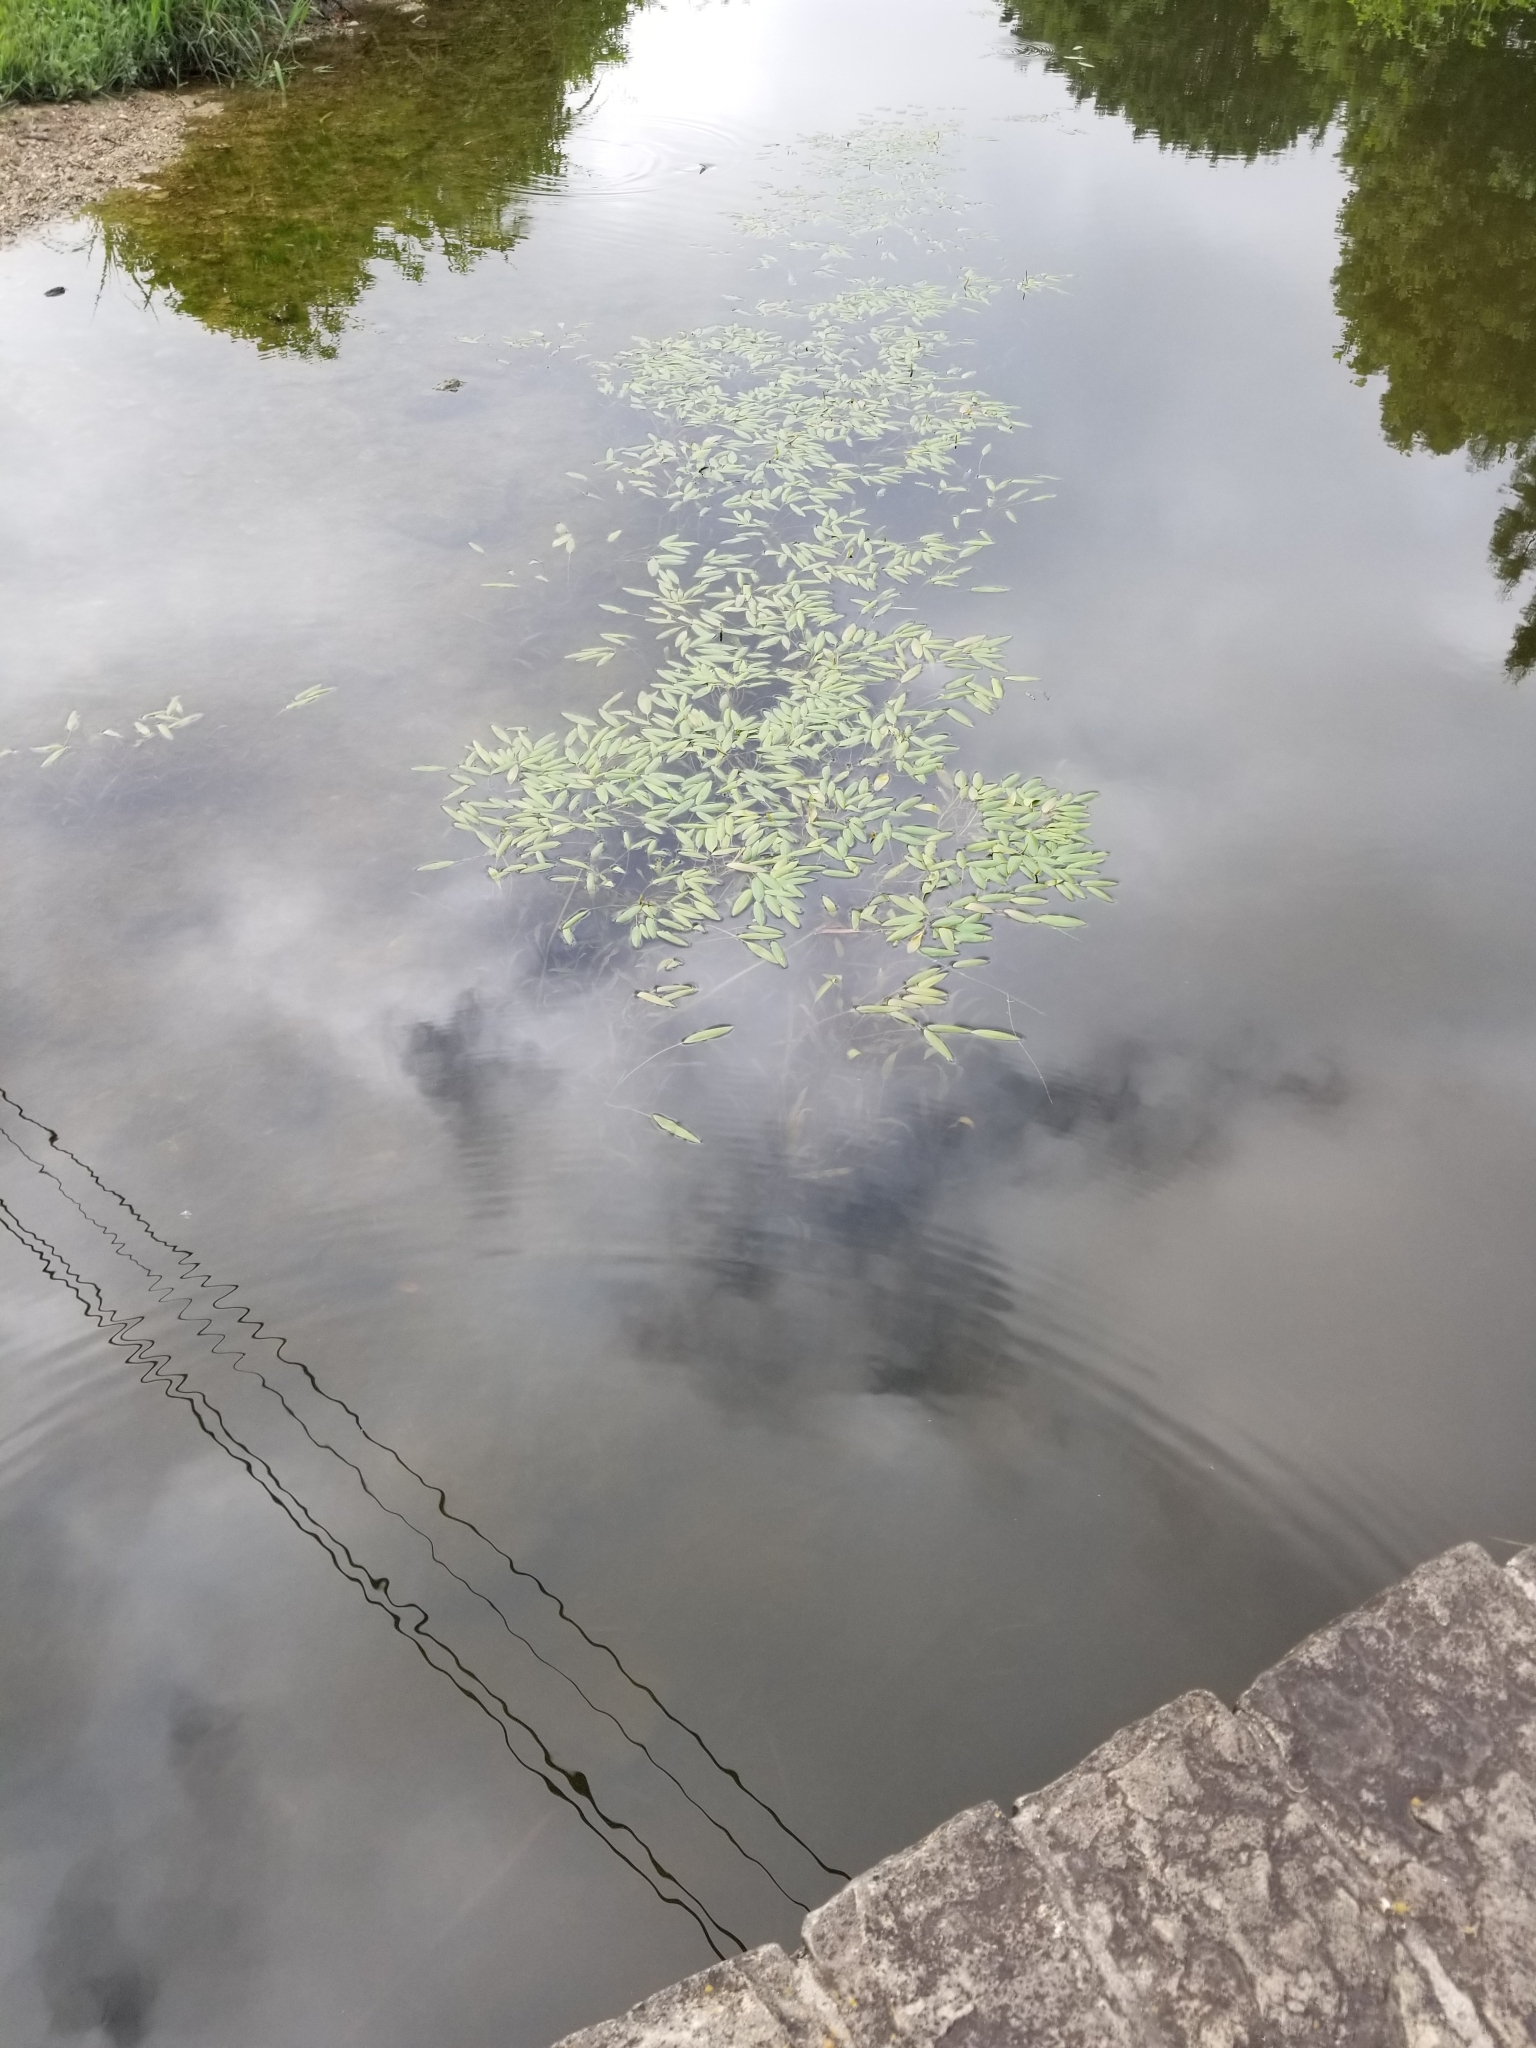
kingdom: Plantae
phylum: Tracheophyta
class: Liliopsida
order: Alismatales
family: Potamogetonaceae
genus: Potamogeton
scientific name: Potamogeton nodosus
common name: Loddon pondweed
